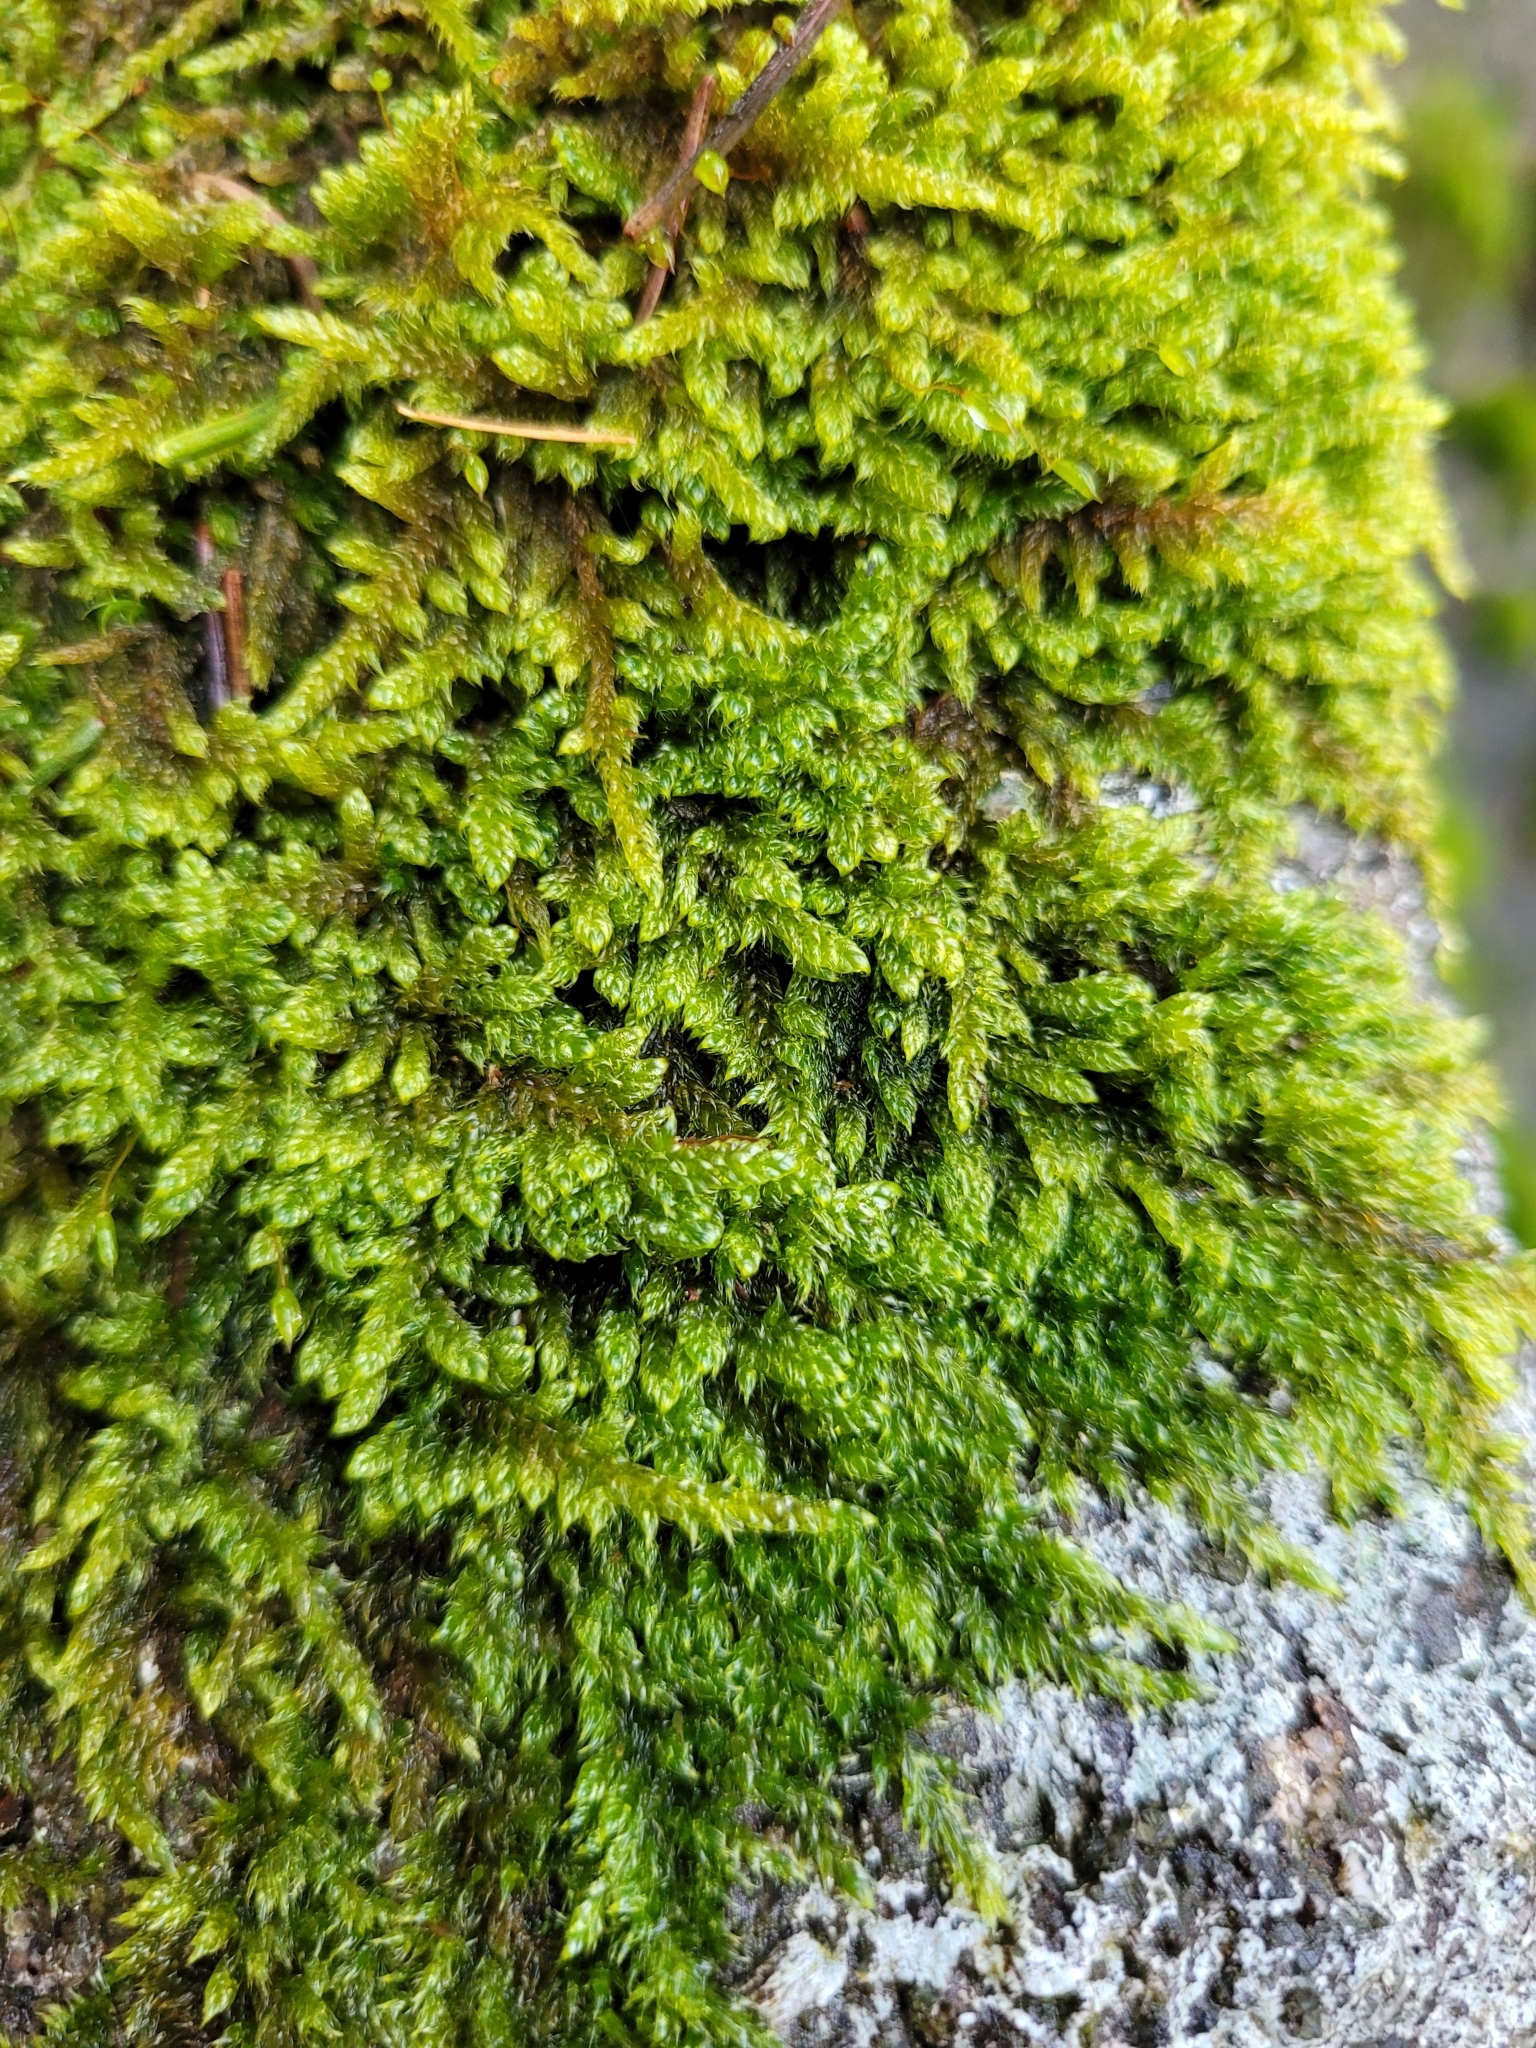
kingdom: Plantae
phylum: Bryophyta
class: Bryopsida
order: Hypnales
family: Hypnaceae
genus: Hypnum
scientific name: Hypnum cupressiforme
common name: Cypress-leaved plait-moss
